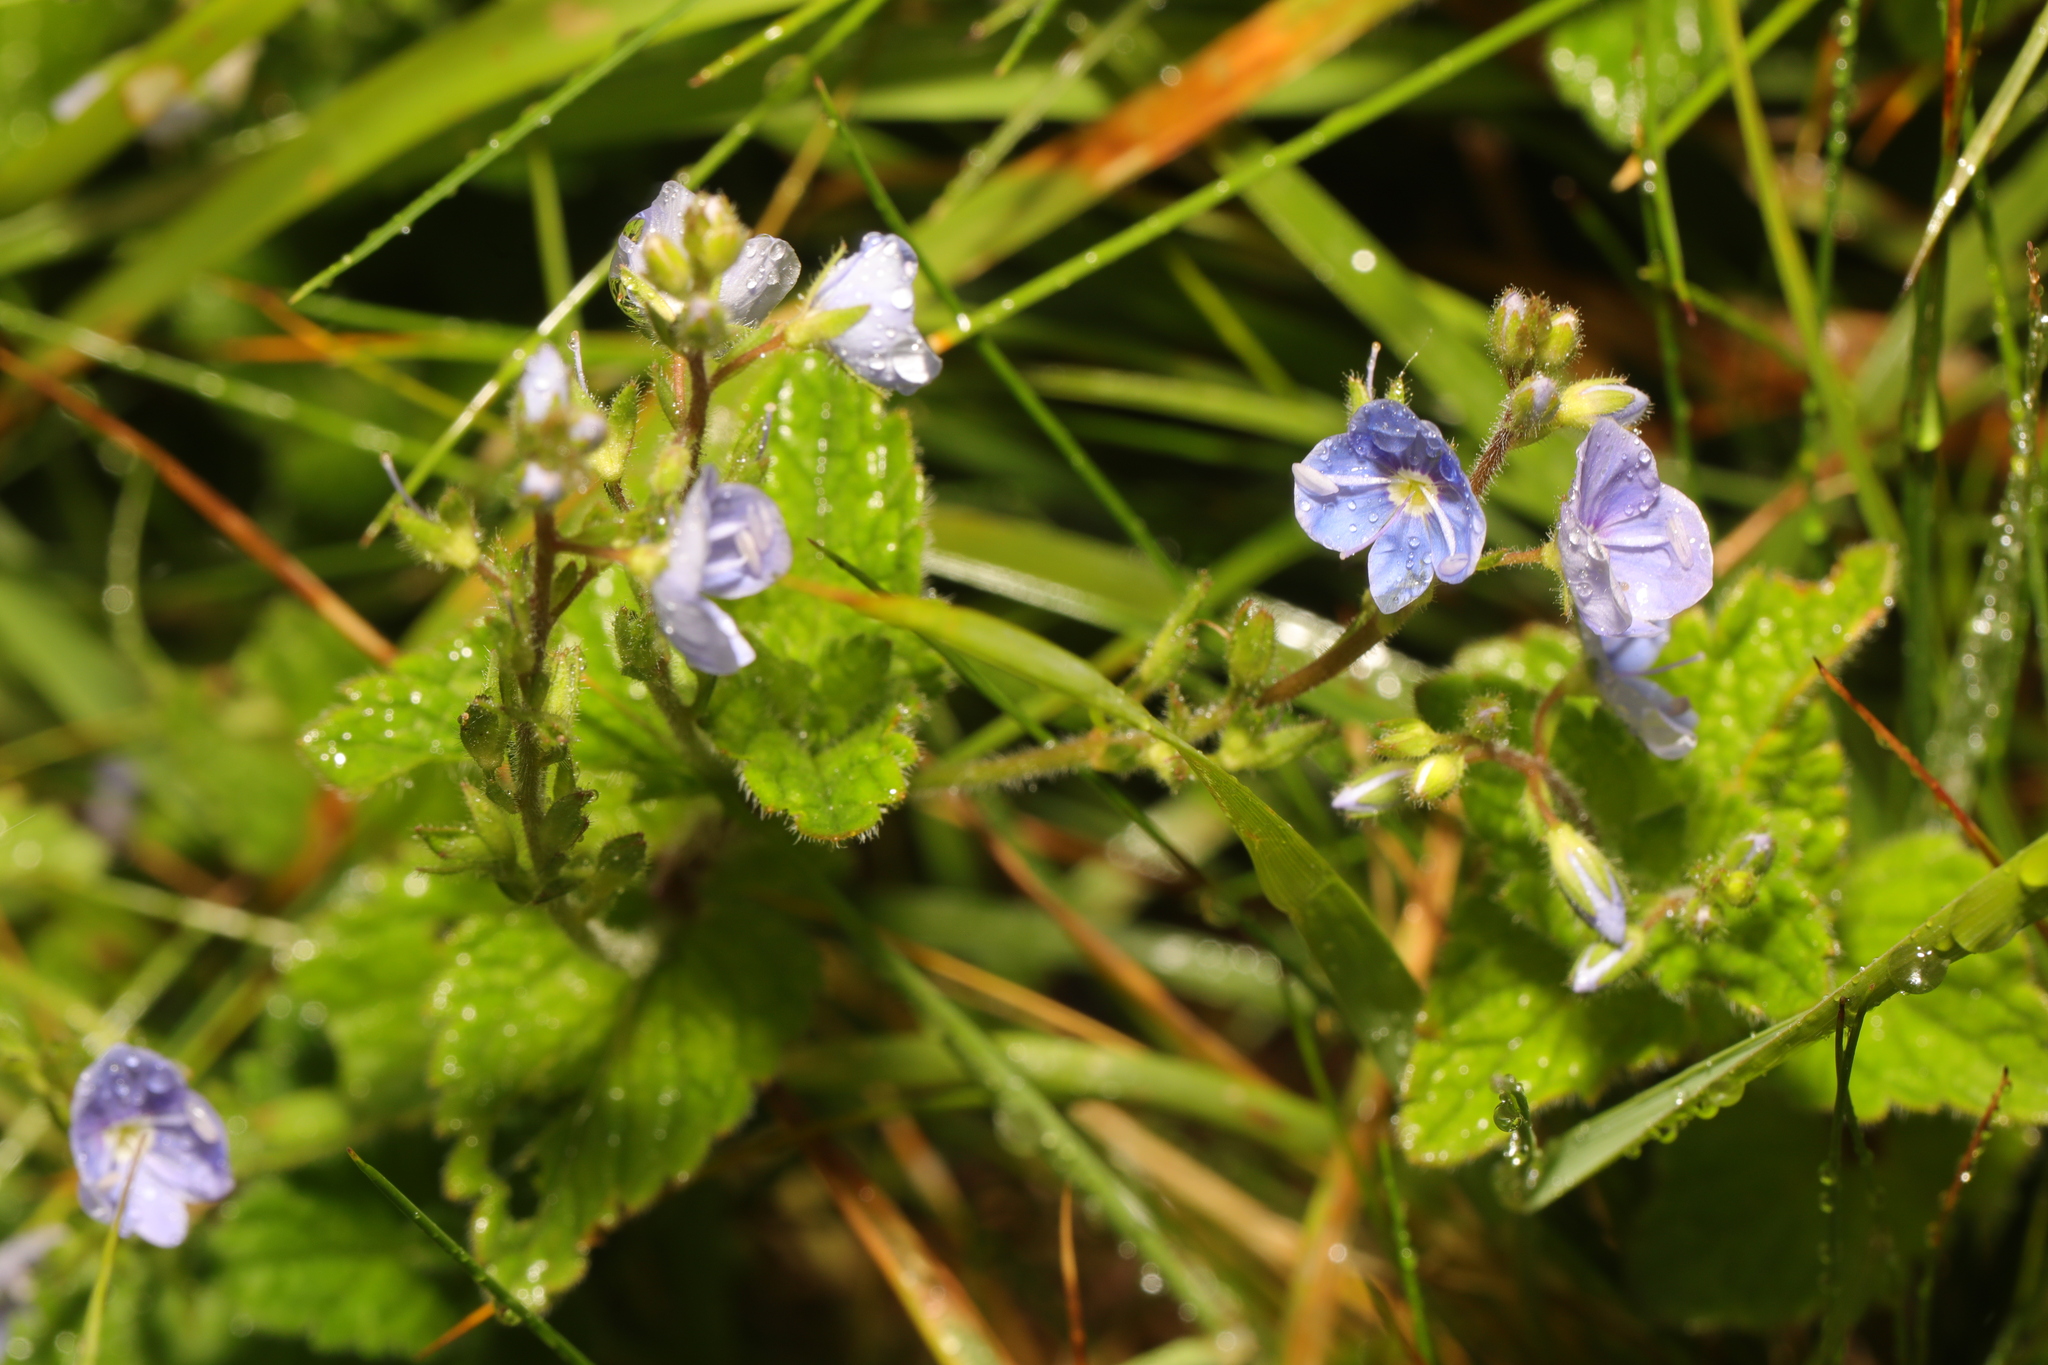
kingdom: Plantae
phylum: Tracheophyta
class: Magnoliopsida
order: Lamiales
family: Plantaginaceae
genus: Veronica
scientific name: Veronica chamaedrys
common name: Germander speedwell
